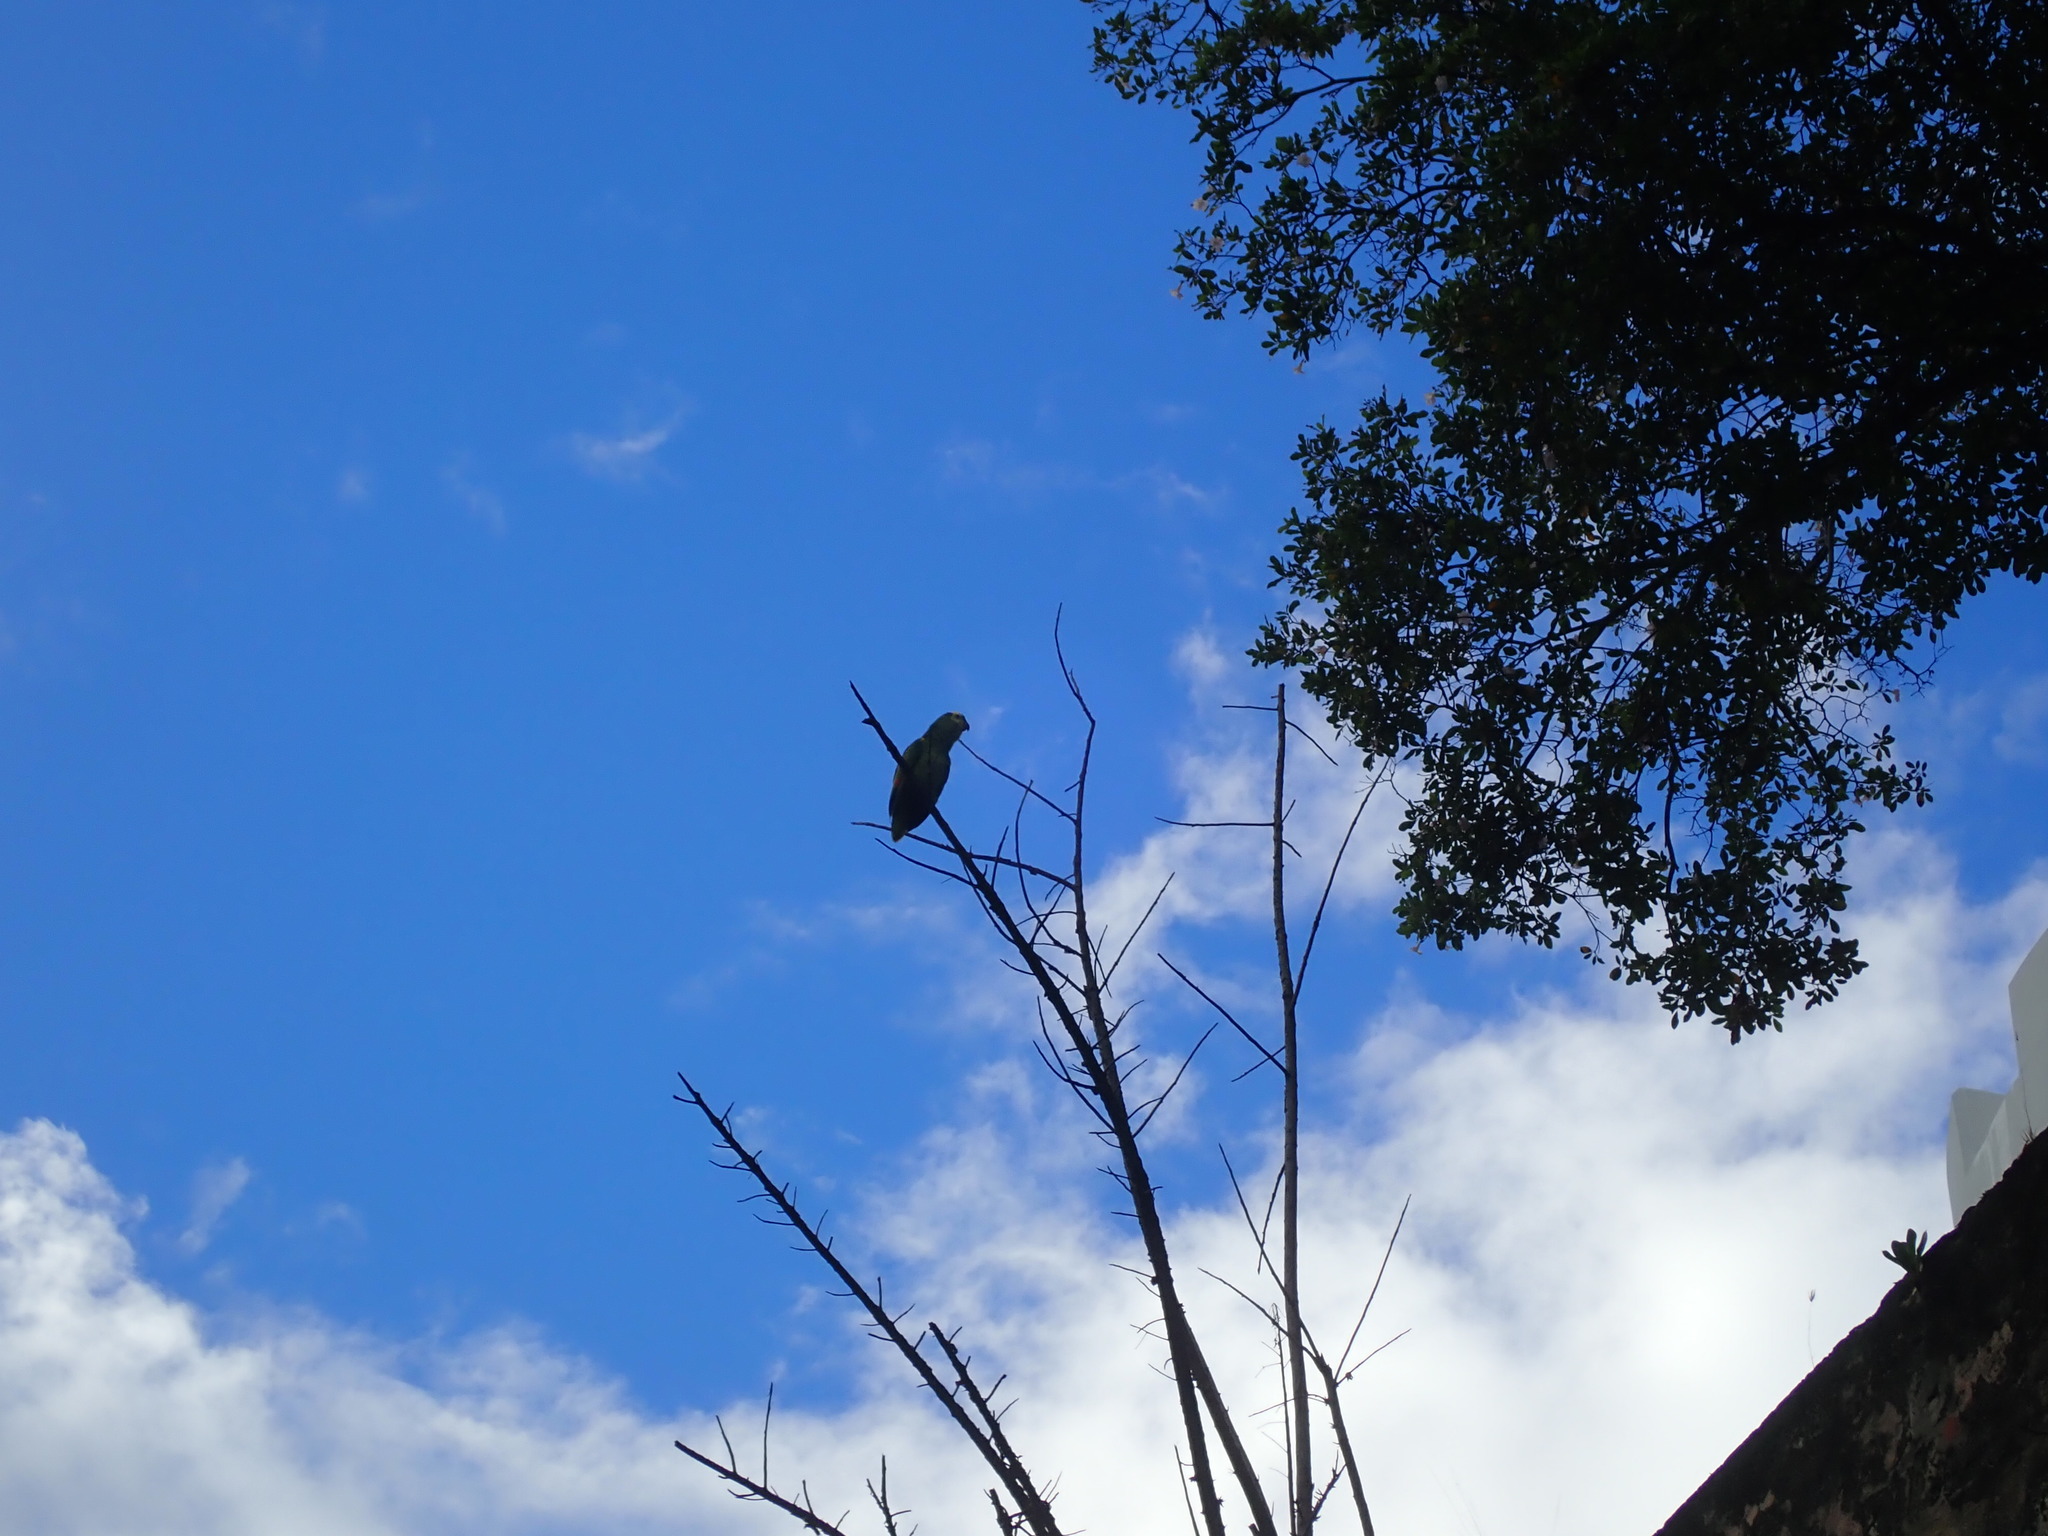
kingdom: Animalia
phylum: Chordata
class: Aves
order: Psittaciformes
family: Psittacidae
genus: Amazona
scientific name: Amazona aestiva
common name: Turquoise-fronted amazon
